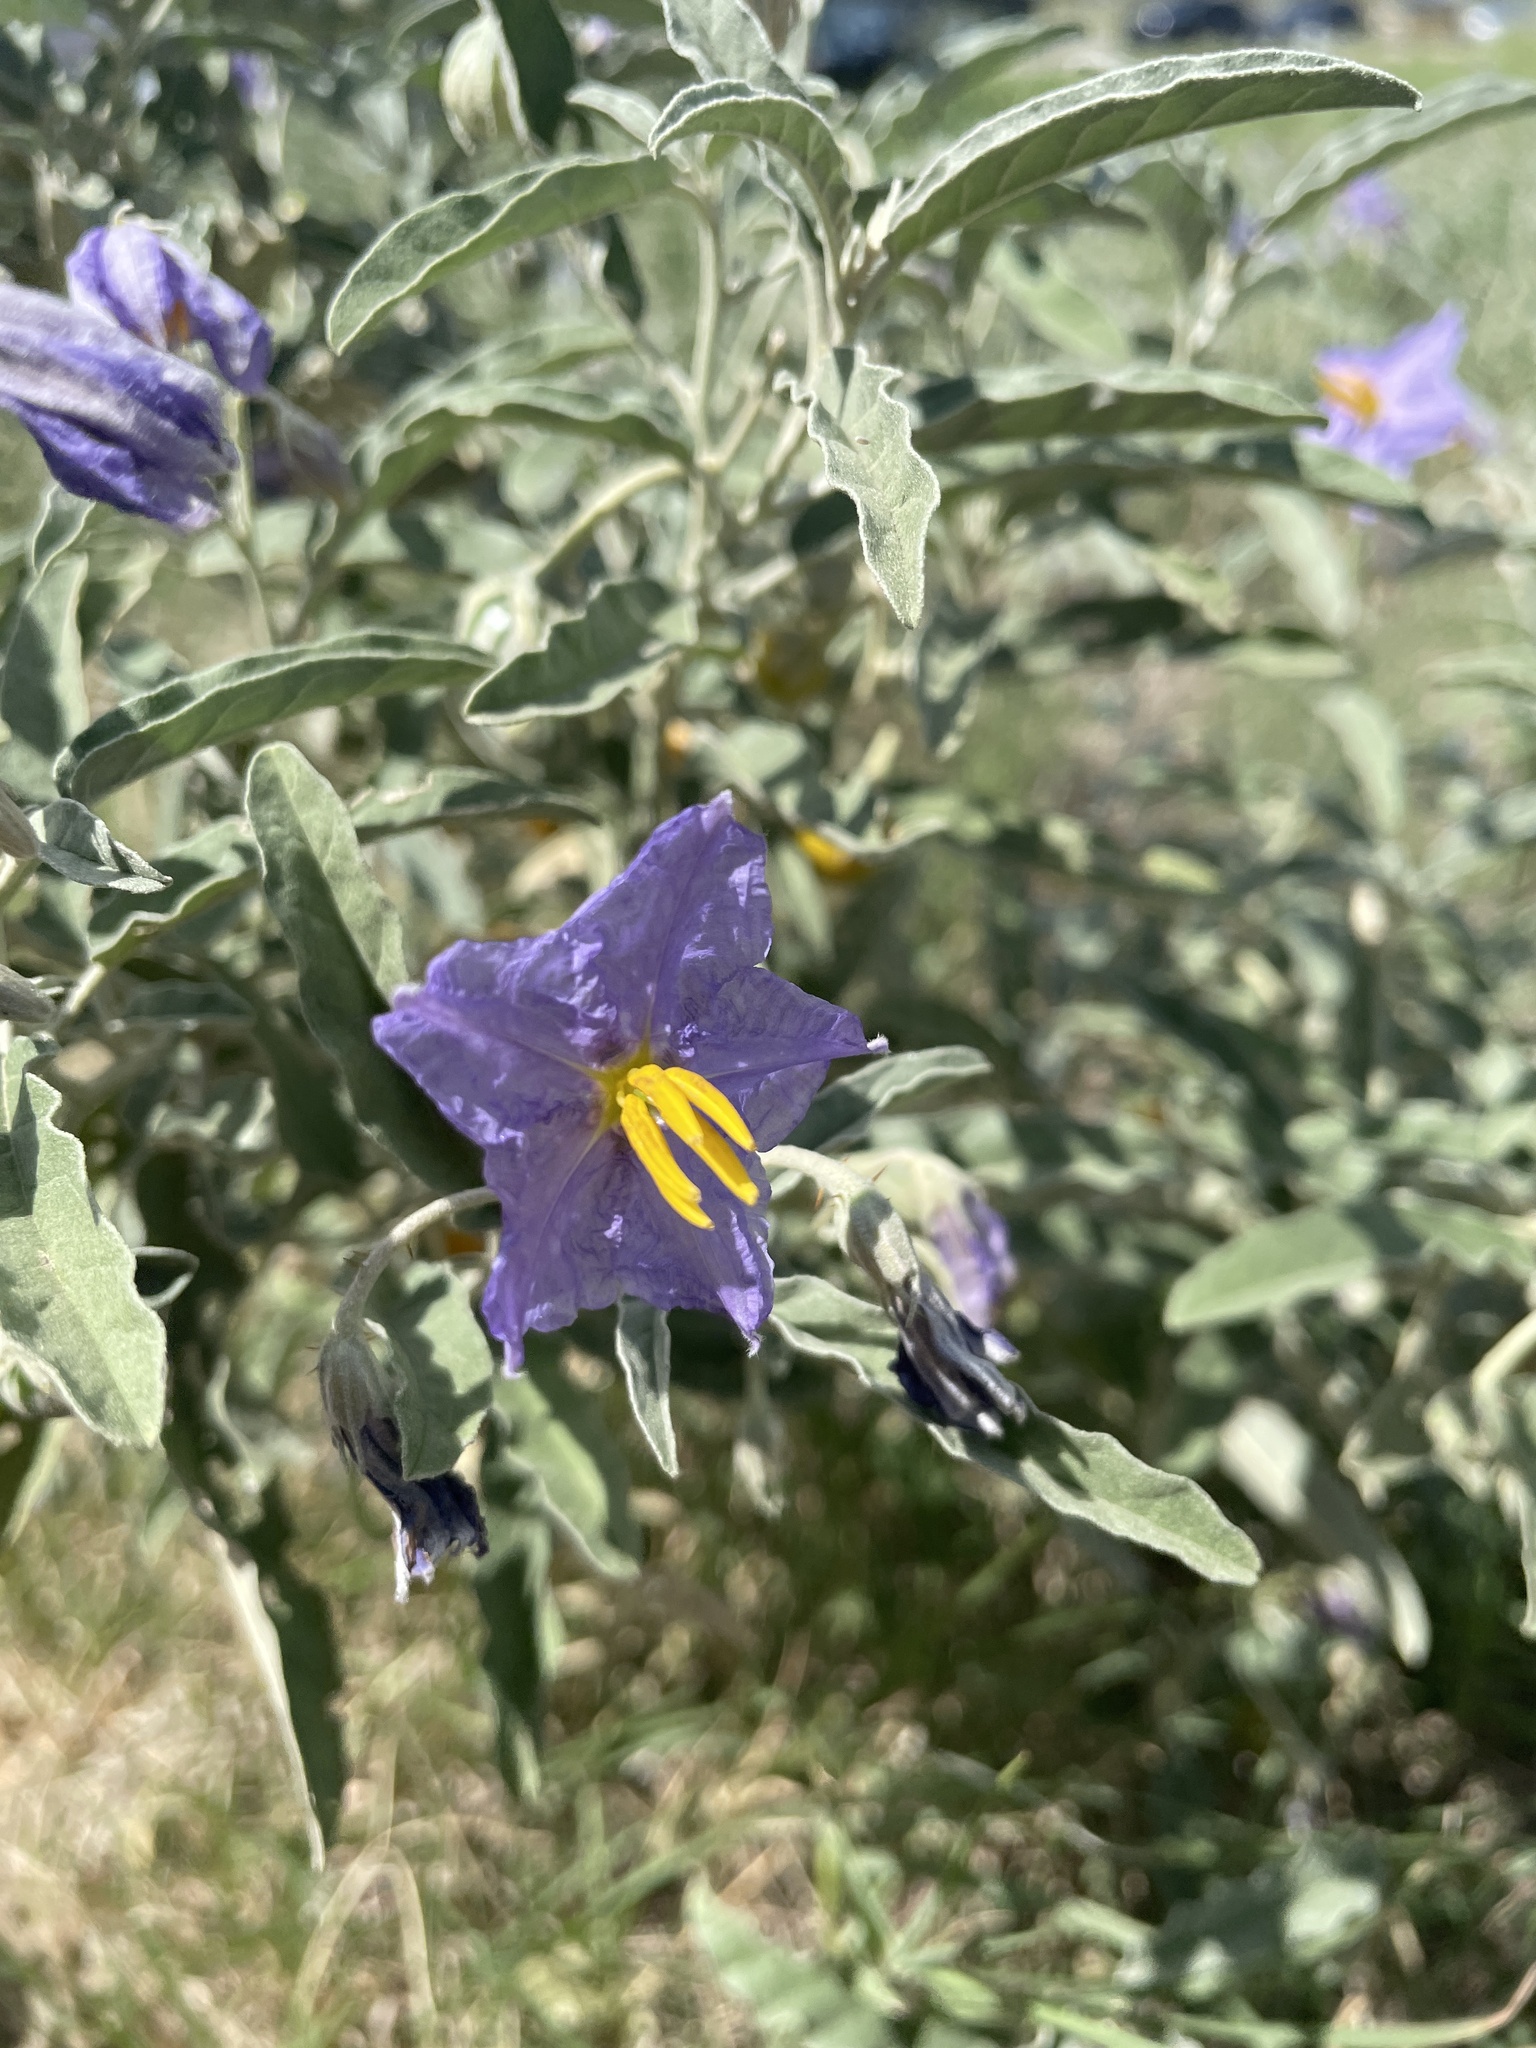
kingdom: Plantae
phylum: Tracheophyta
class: Magnoliopsida
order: Solanales
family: Solanaceae
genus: Solanum
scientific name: Solanum elaeagnifolium
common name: Silverleaf nightshade
